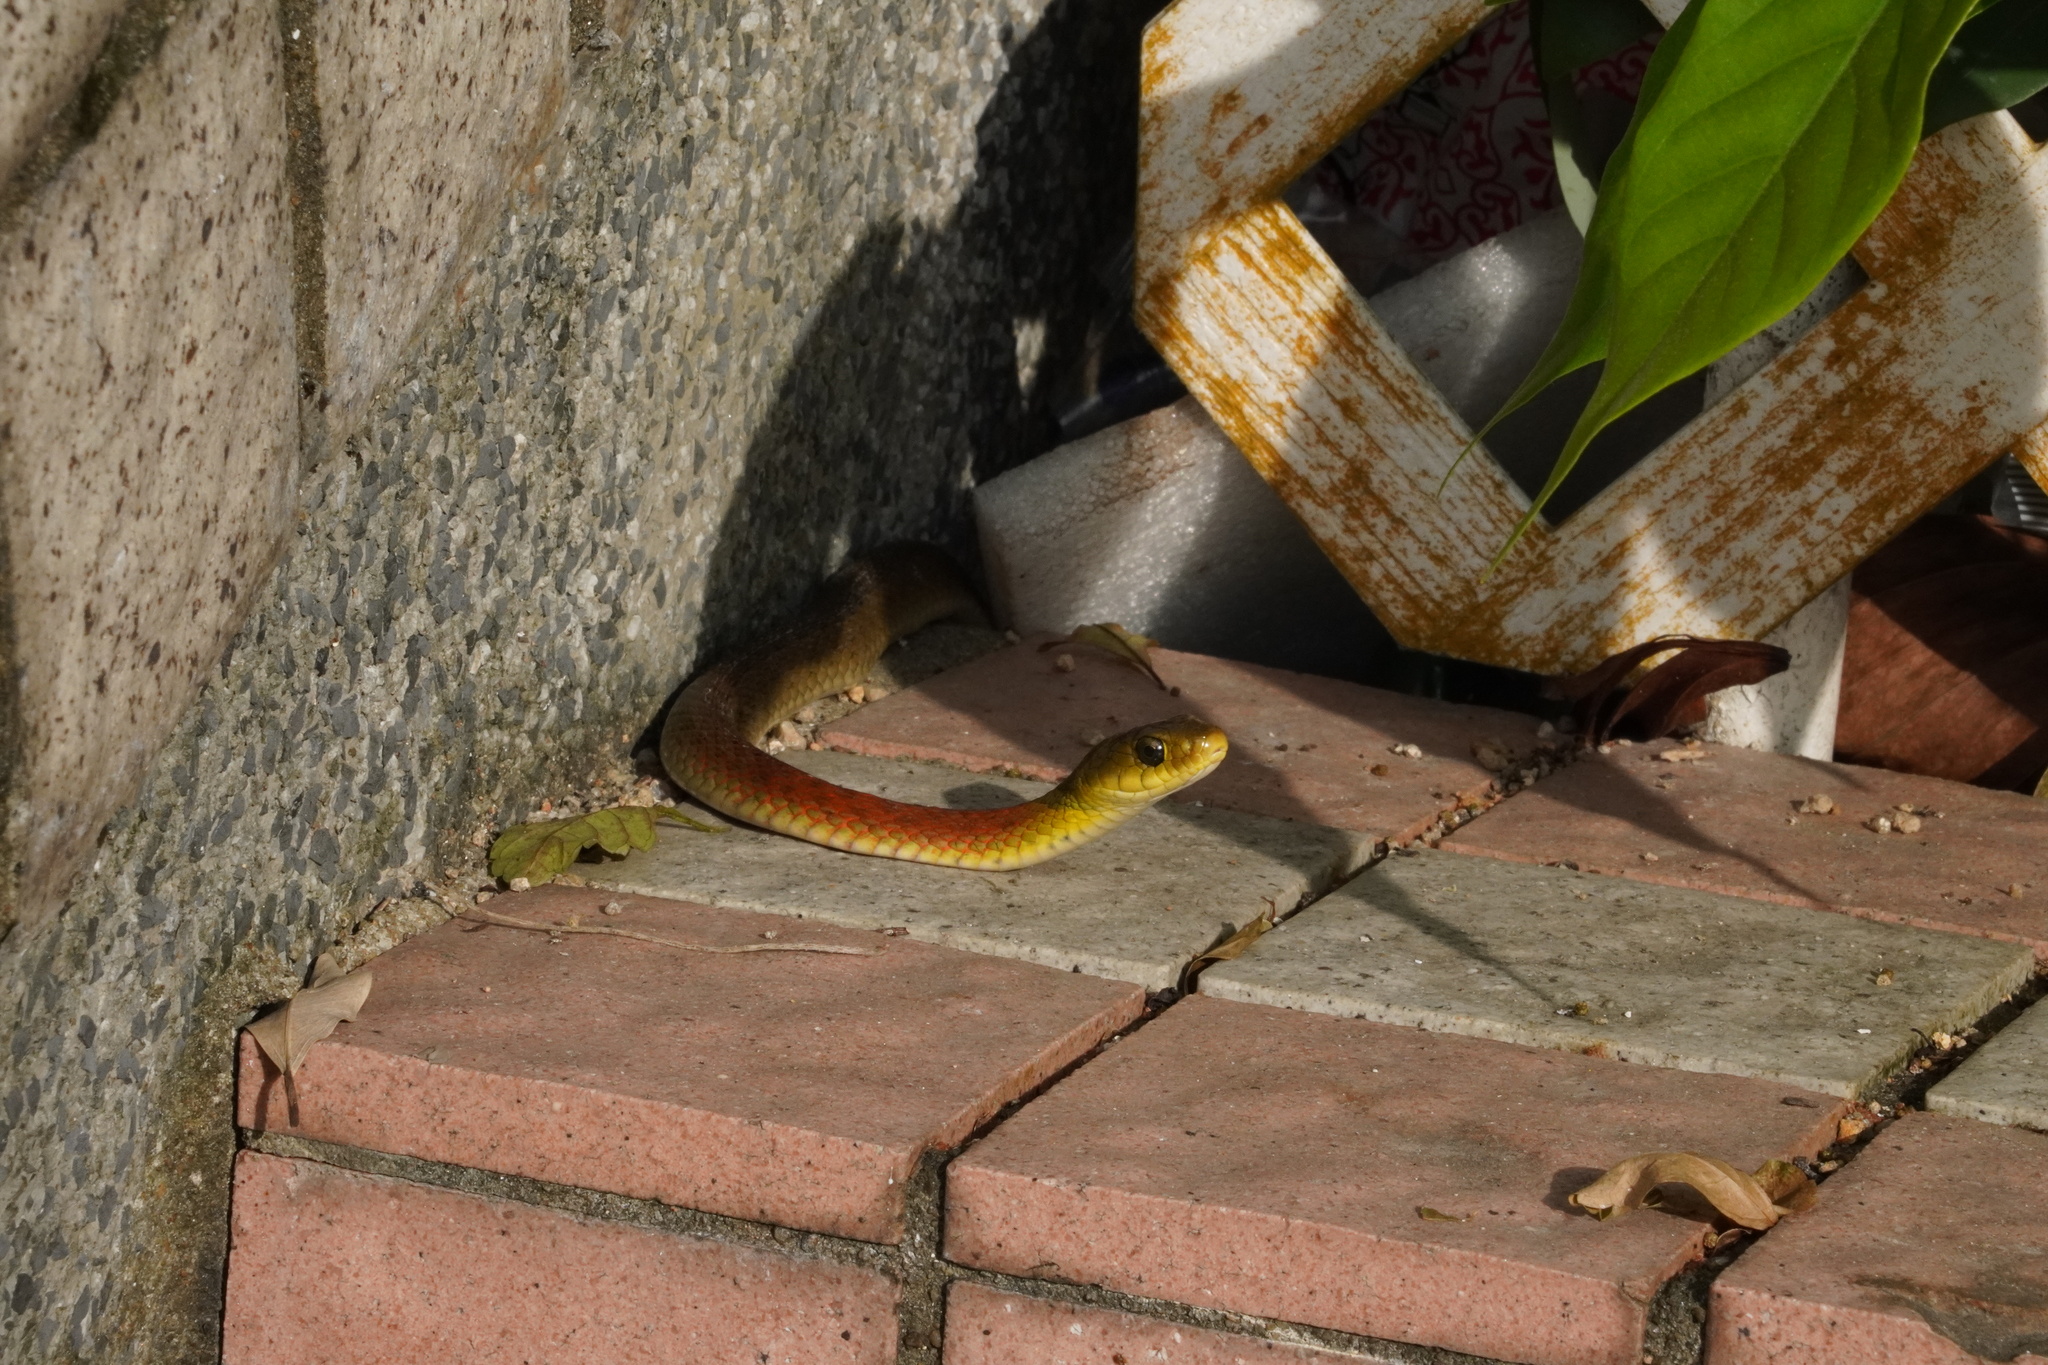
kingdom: Animalia
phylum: Chordata
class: Squamata
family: Colubridae
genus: Rhabdophis
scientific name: Rhabdophis helleri
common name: Heller’s red-necked keelback
